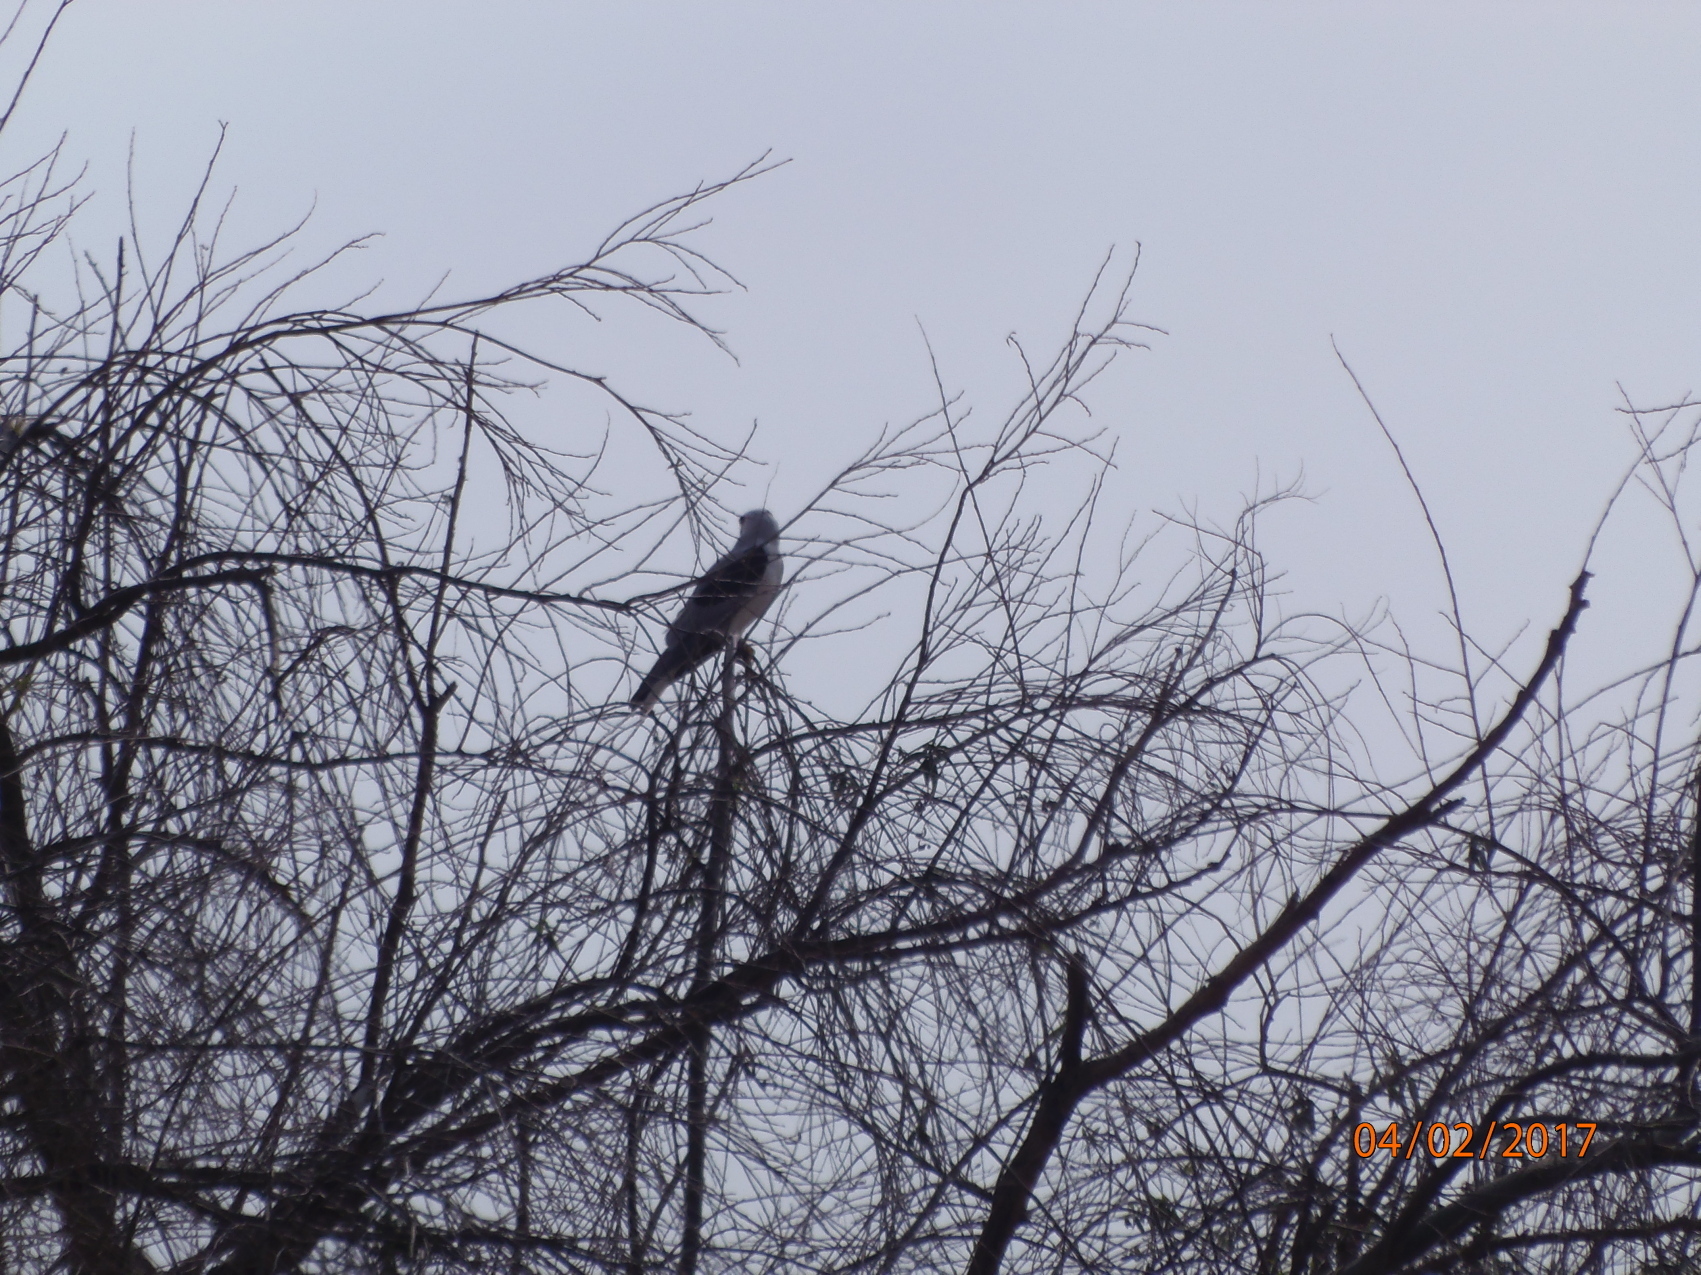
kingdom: Animalia
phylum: Chordata
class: Aves
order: Accipitriformes
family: Accipitridae
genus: Elanus
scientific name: Elanus leucurus
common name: White-tailed kite
